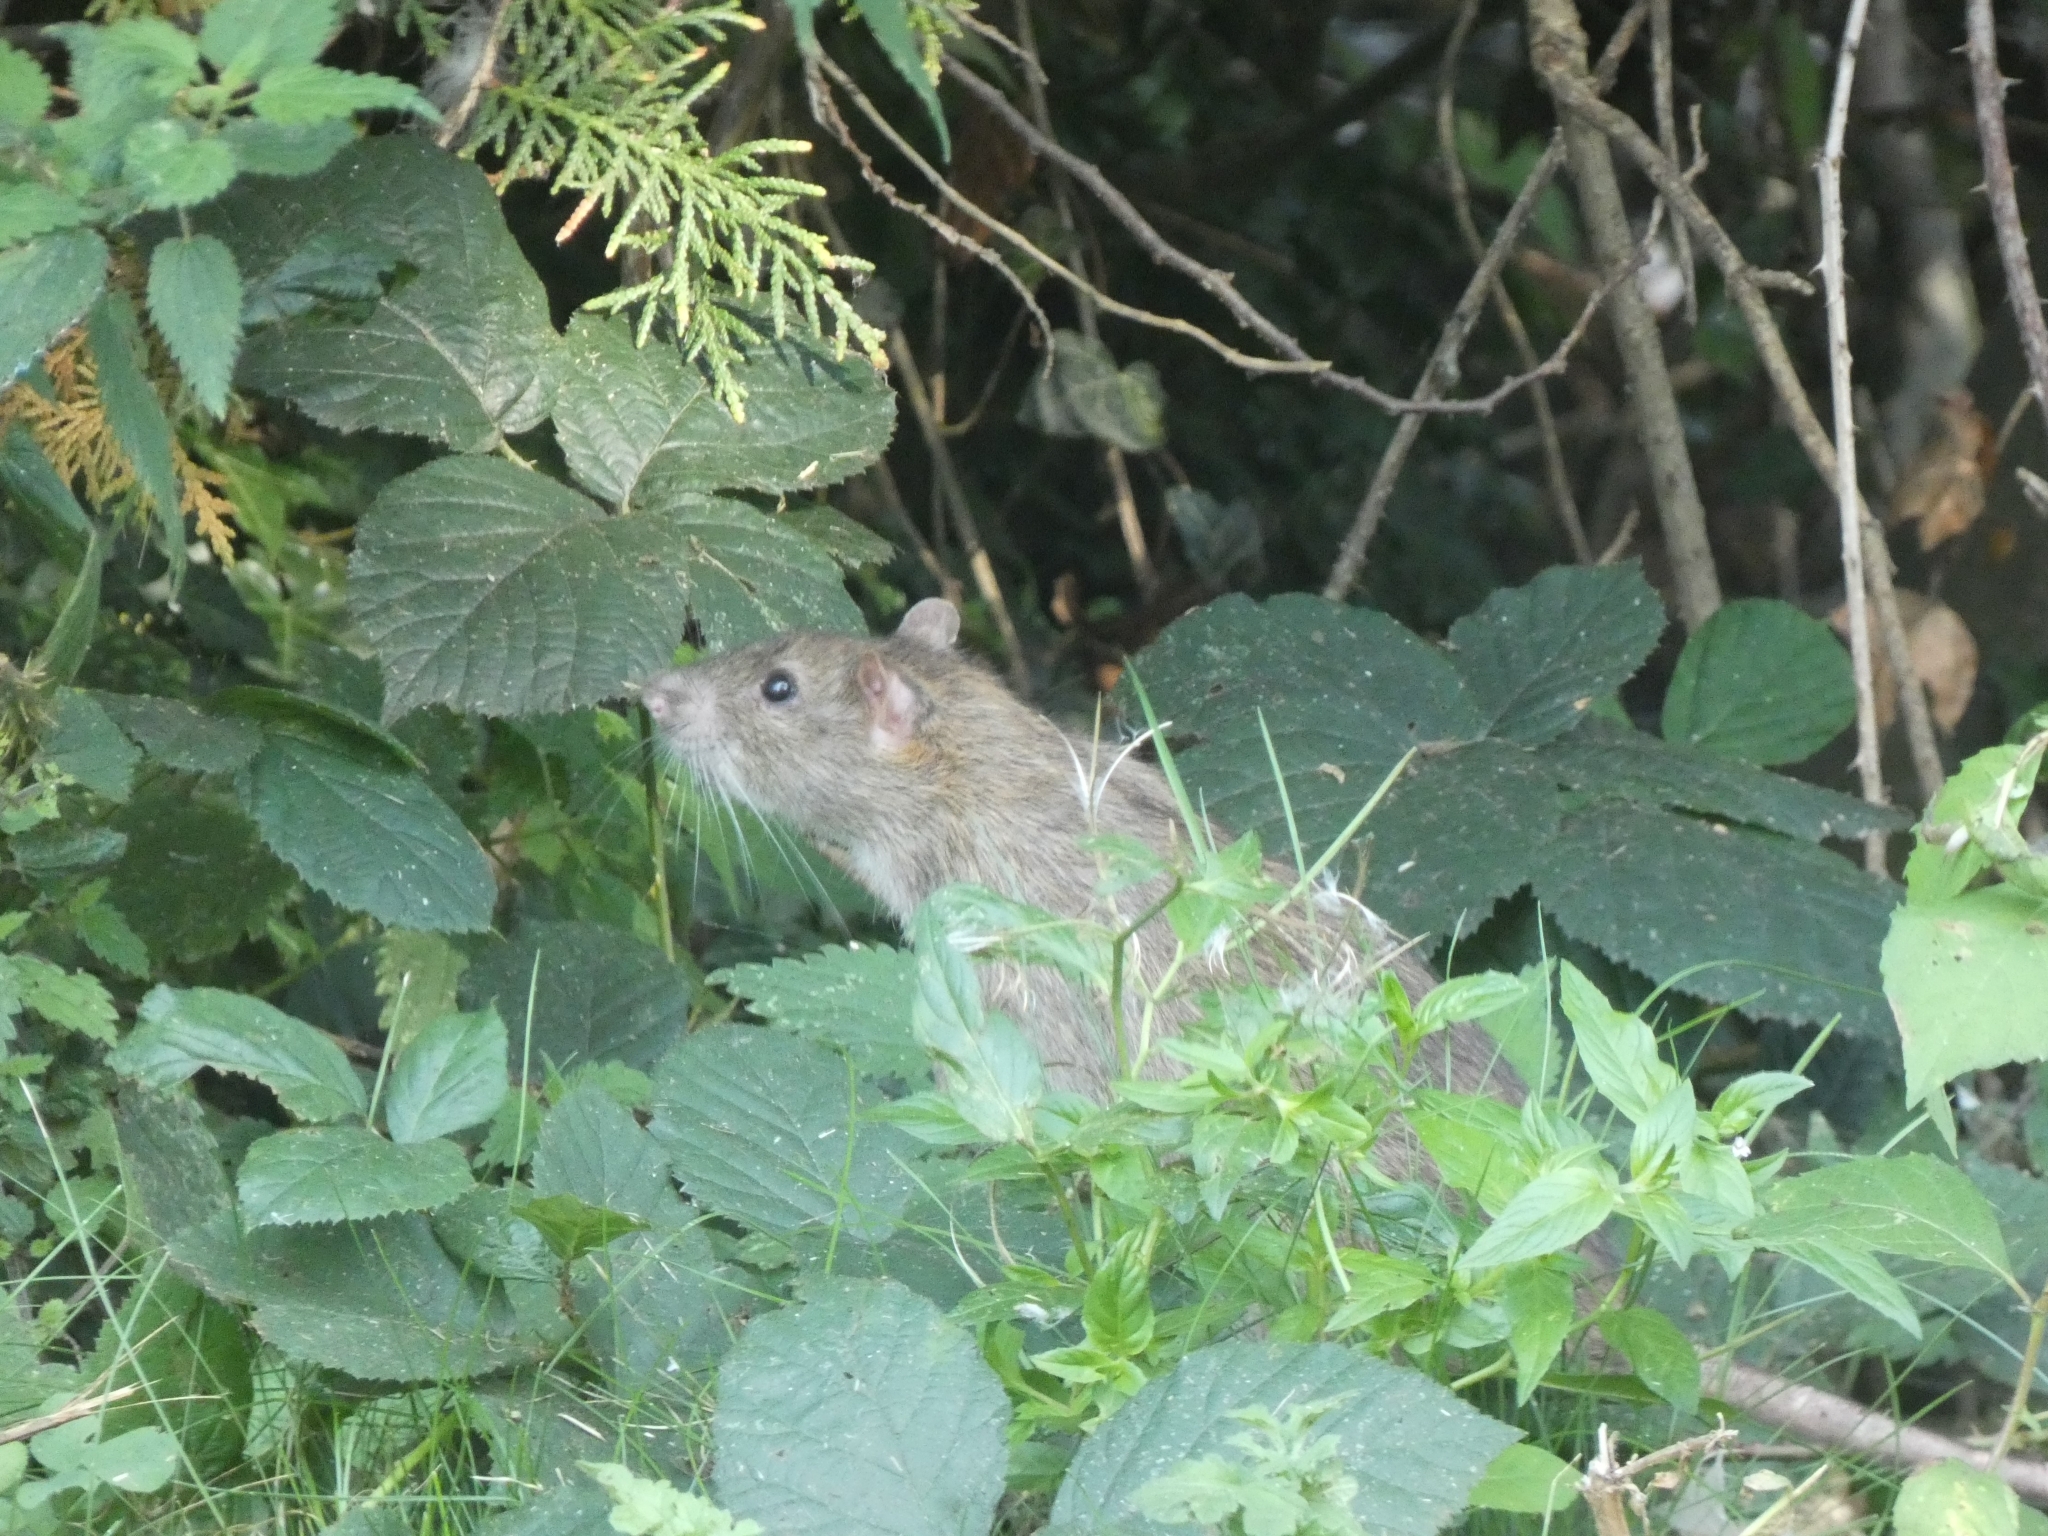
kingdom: Animalia
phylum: Chordata
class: Mammalia
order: Rodentia
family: Muridae
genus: Rattus
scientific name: Rattus norvegicus
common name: Brown rat
